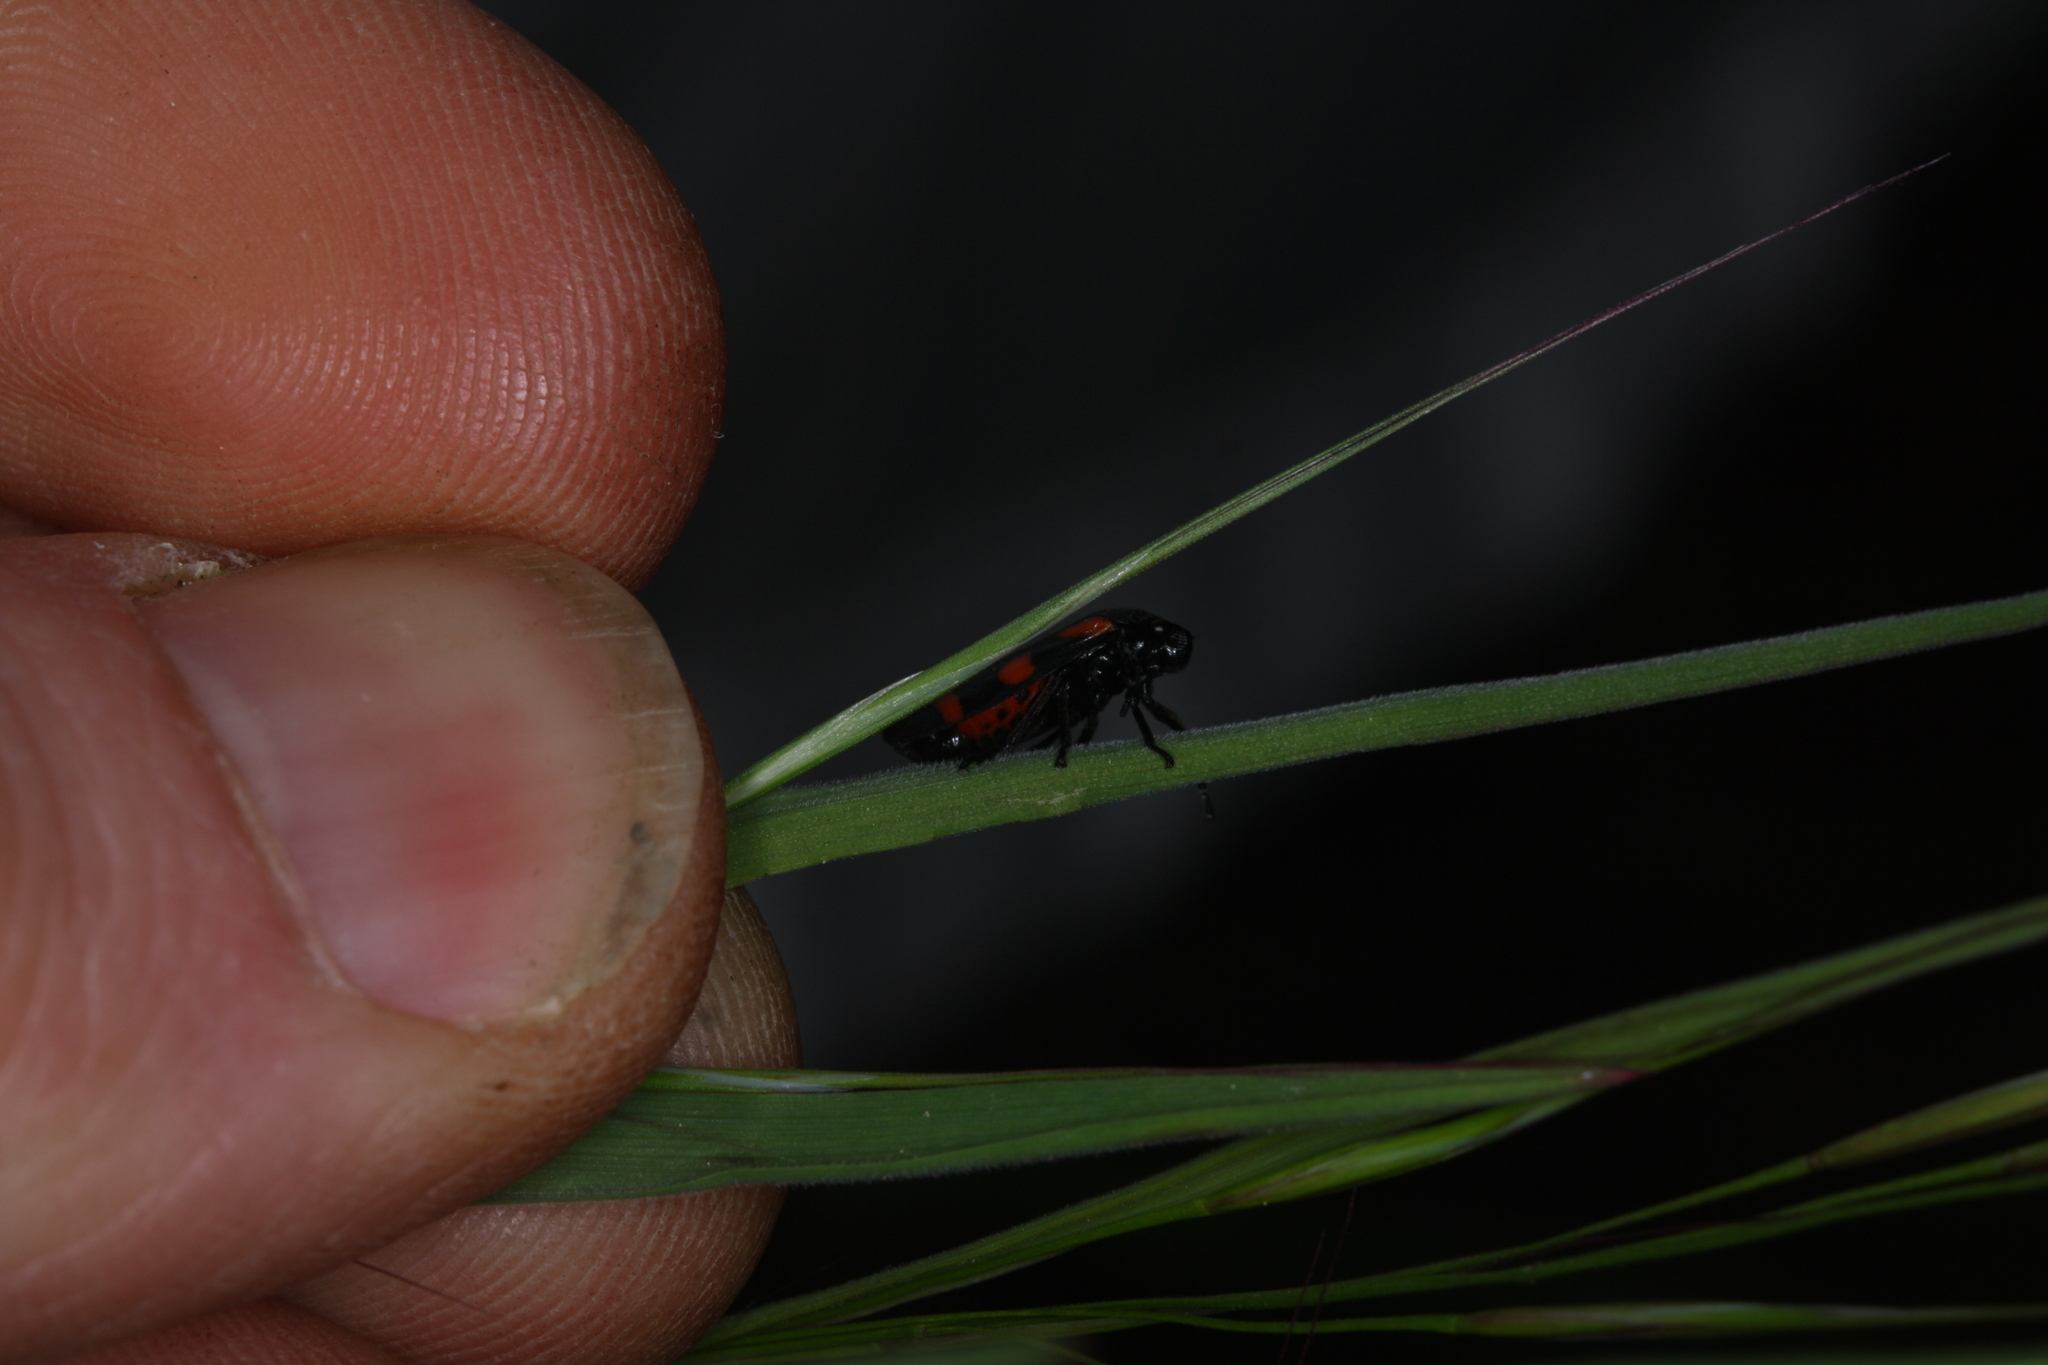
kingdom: Animalia
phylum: Arthropoda
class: Insecta
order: Hemiptera
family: Cercopidae
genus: Cercopis
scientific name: Cercopis sanguinolenta
